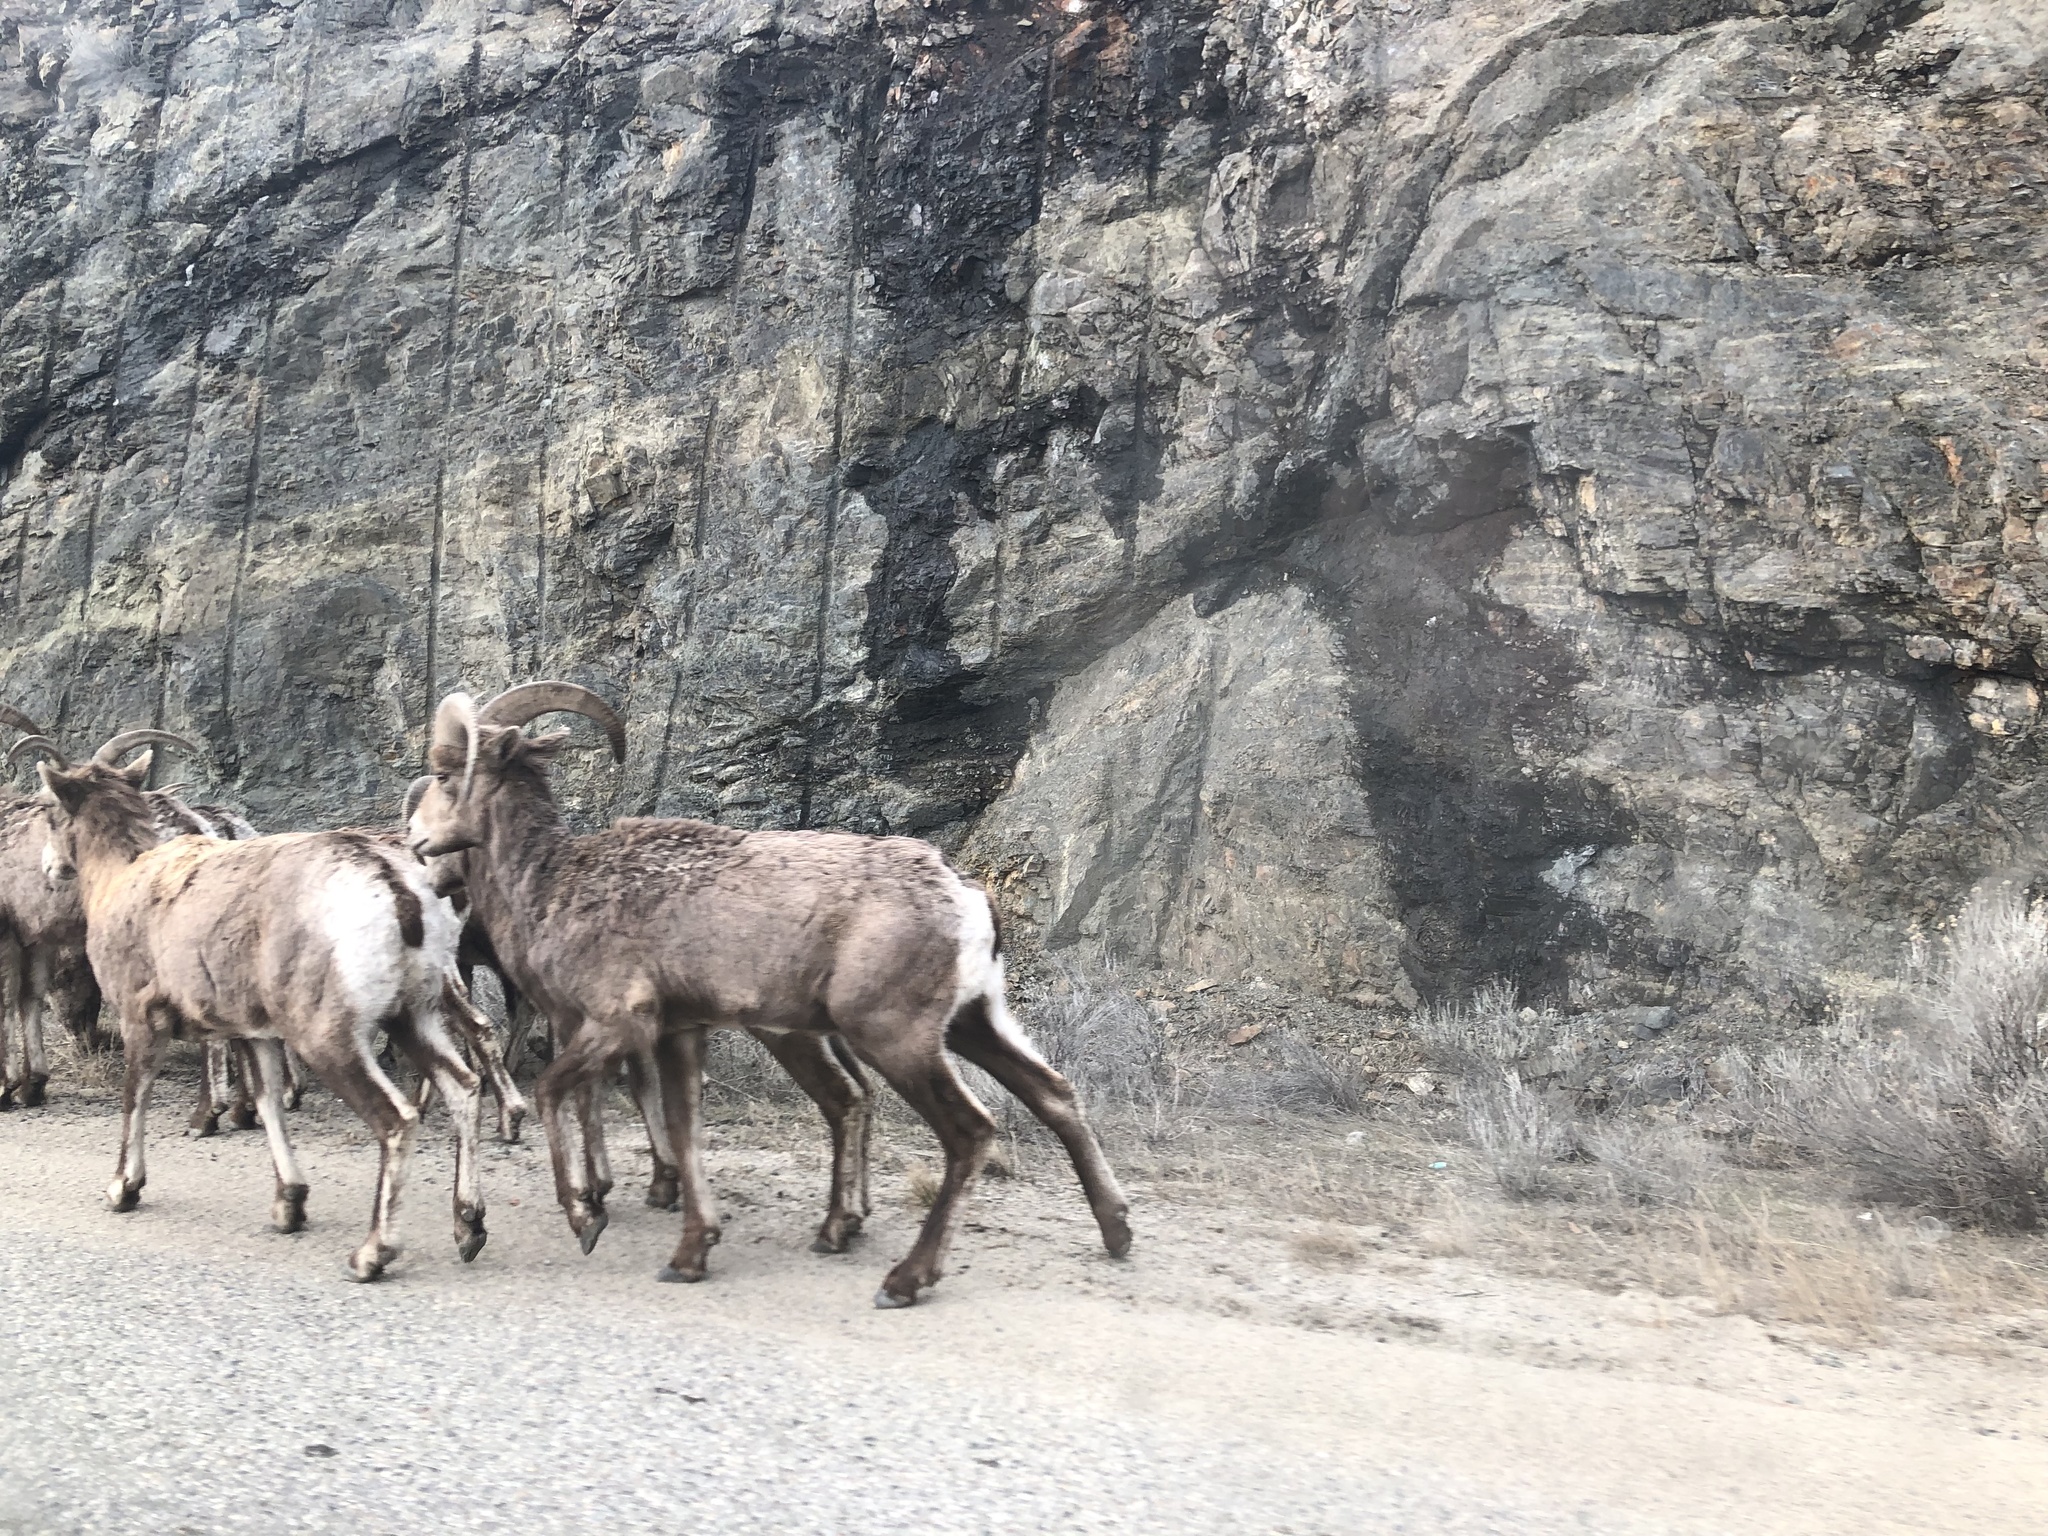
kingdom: Animalia
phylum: Chordata
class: Mammalia
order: Artiodactyla
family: Bovidae
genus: Ovis
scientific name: Ovis canadensis
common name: Bighorn sheep
